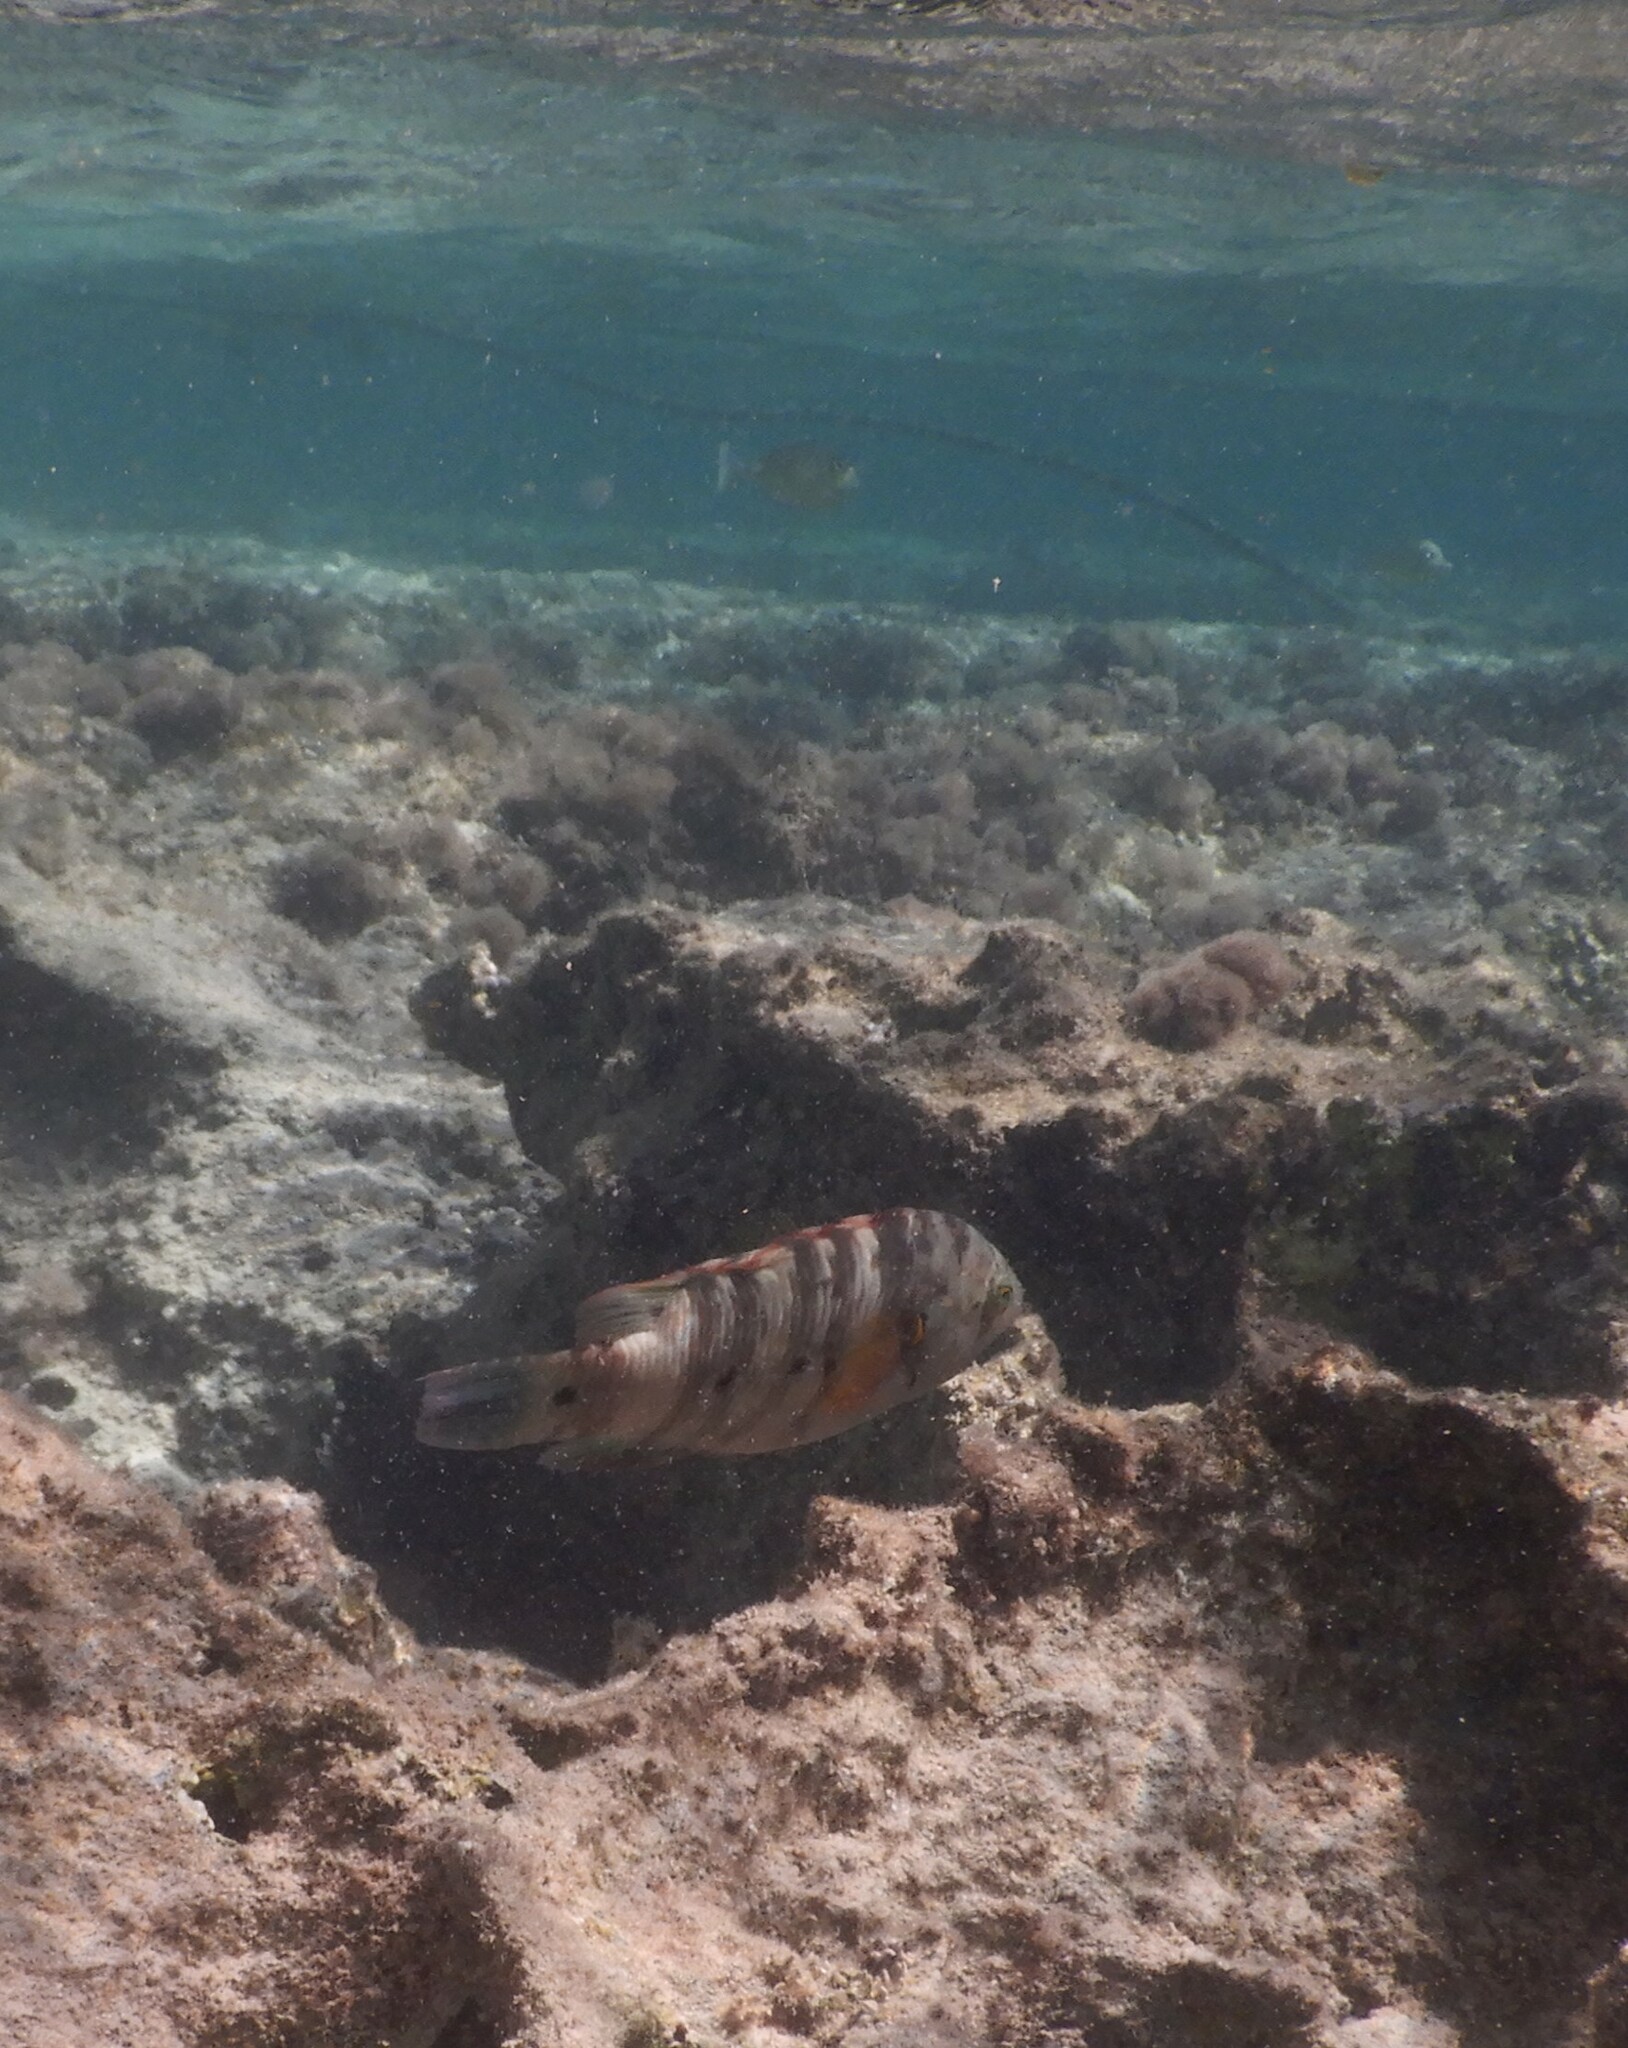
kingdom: Animalia
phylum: Chordata
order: Perciformes
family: Labridae
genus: Cheilinus
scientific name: Cheilinus lunulatus
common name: Broomtail wrasse
